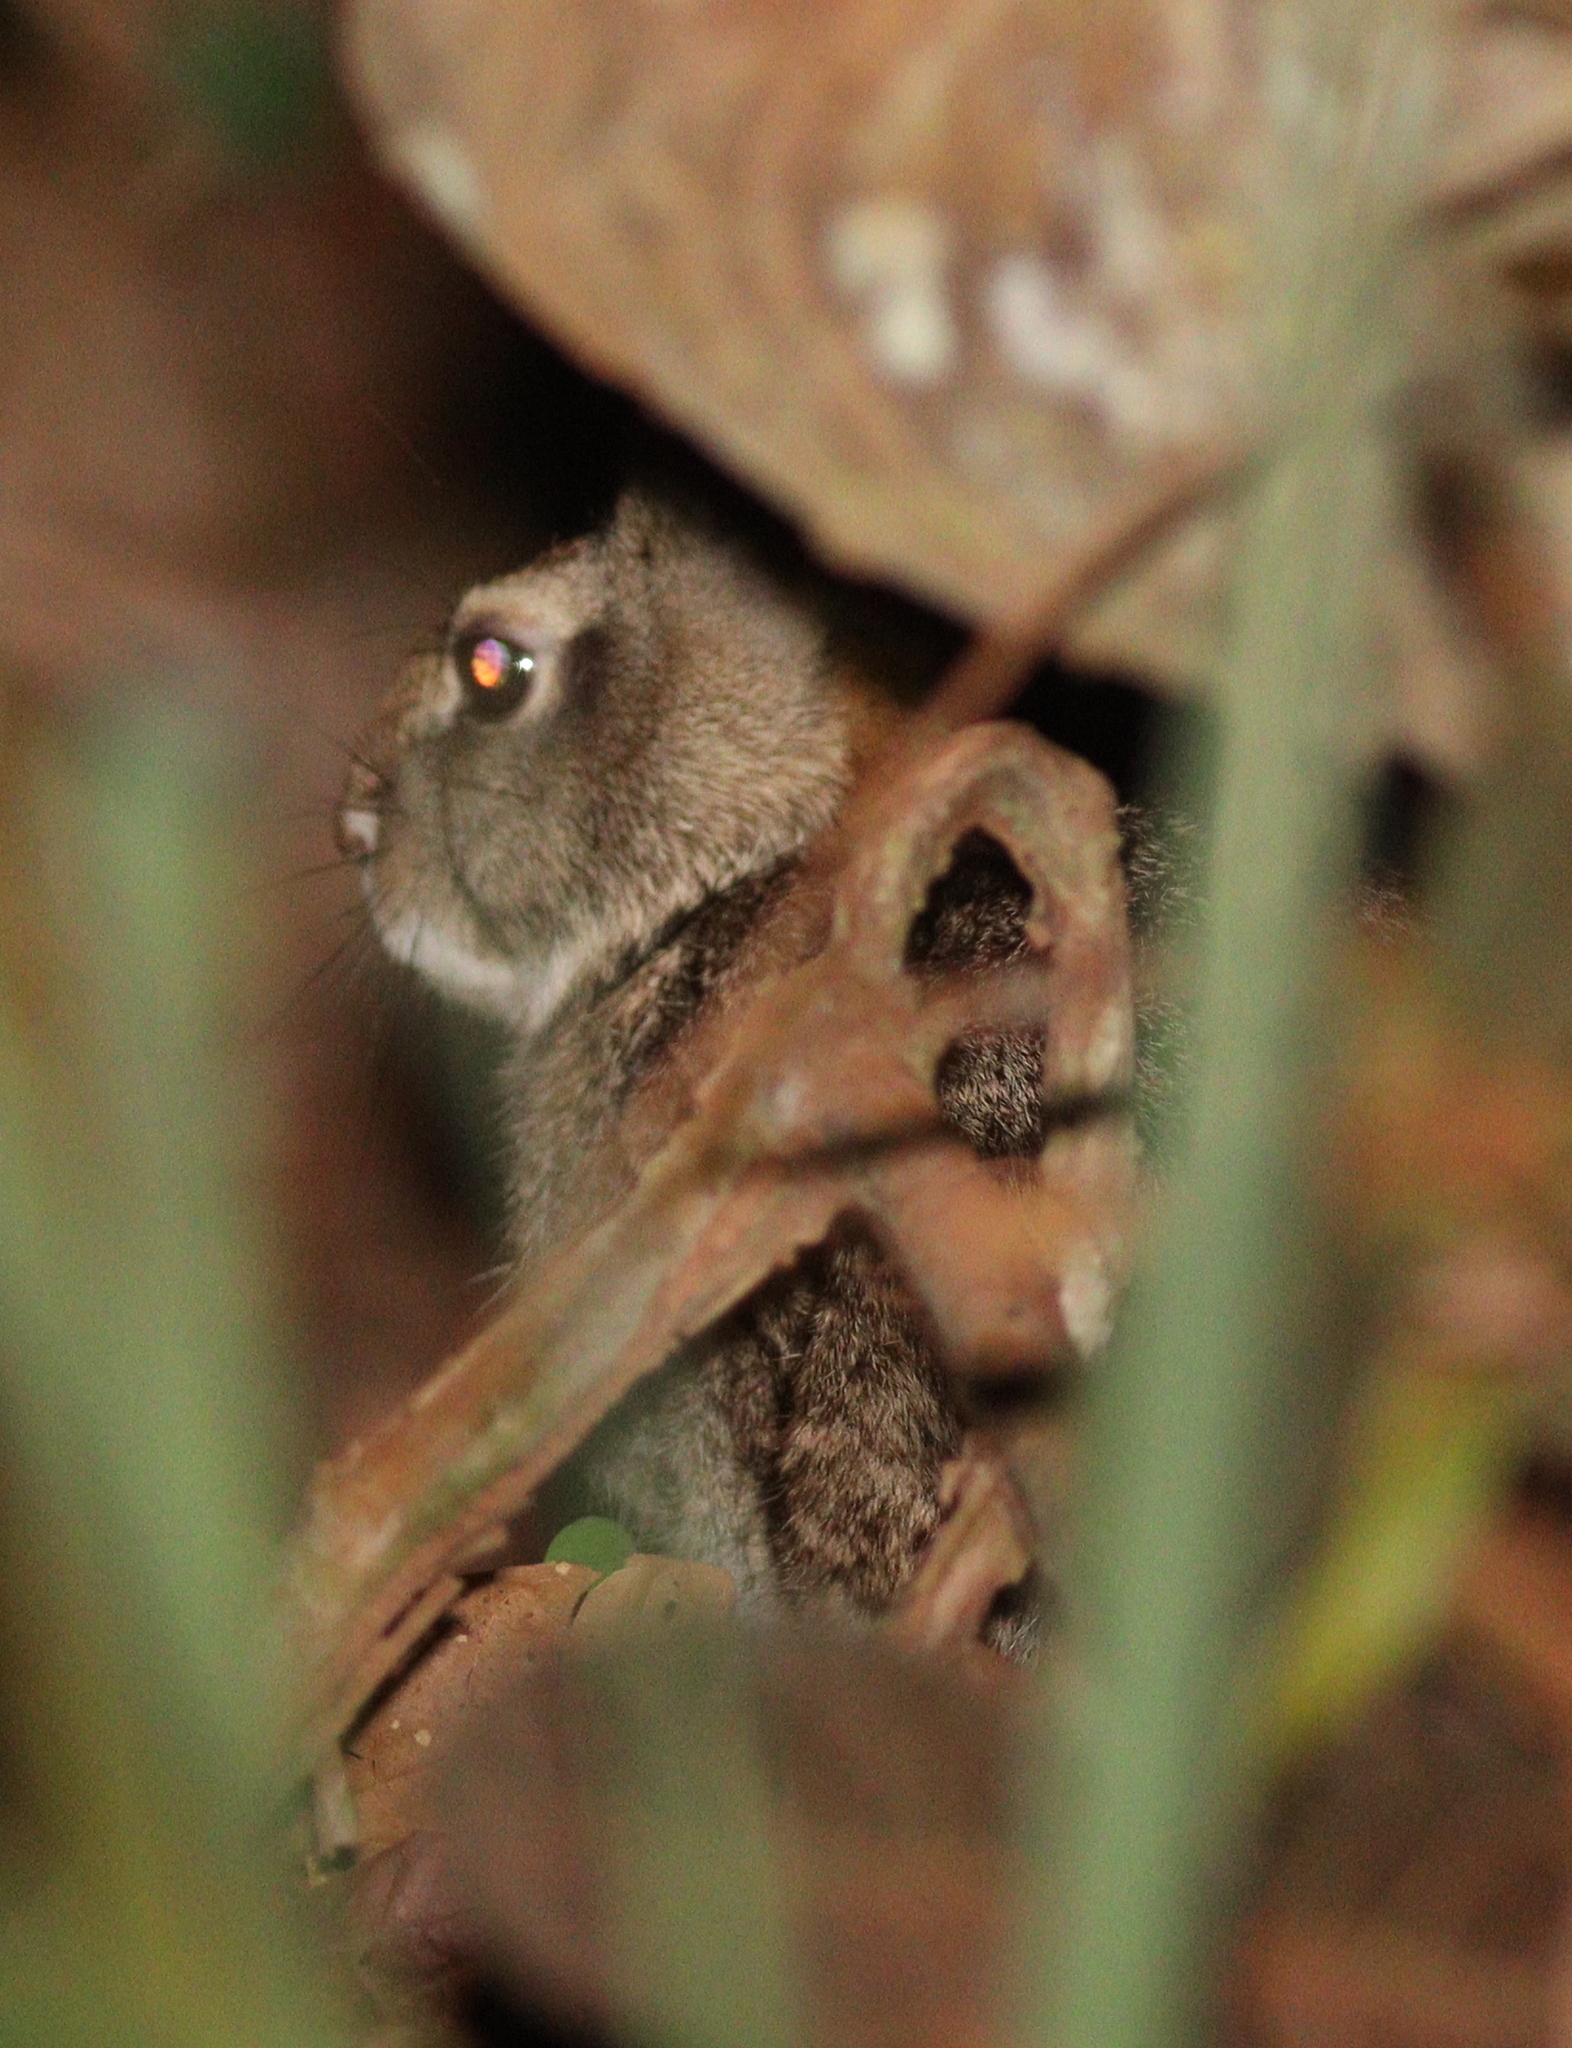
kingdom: Animalia
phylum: Chordata
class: Mammalia
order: Lagomorpha
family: Leporidae
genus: Sylvilagus
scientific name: Sylvilagus brasiliensis
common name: Tapeti
